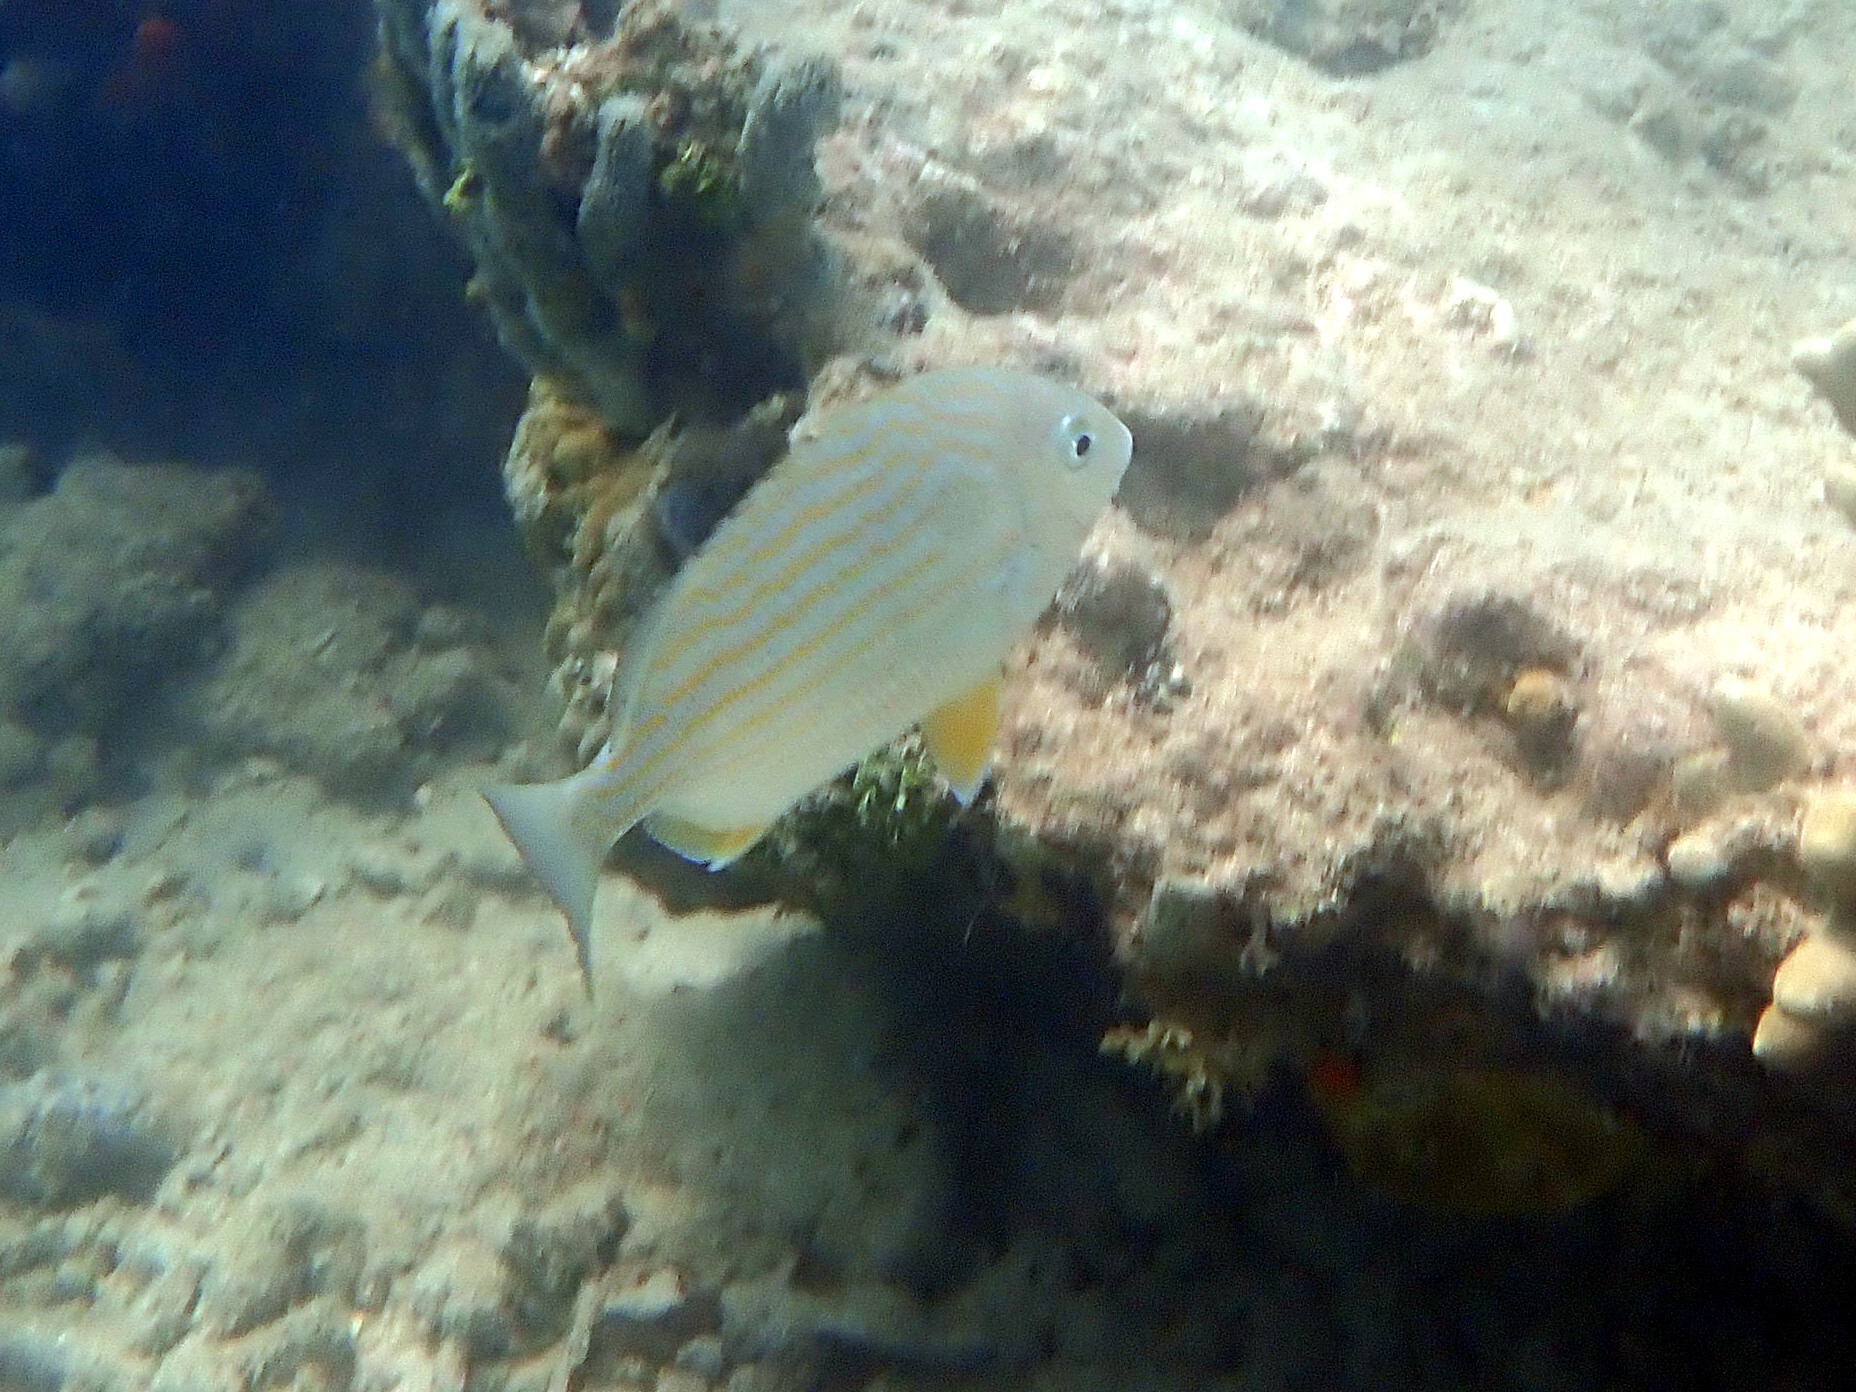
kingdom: Animalia
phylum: Chordata
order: Perciformes
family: Sparidae
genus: Archosargus
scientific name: Archosargus rhomboidalis
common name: Sea bream
